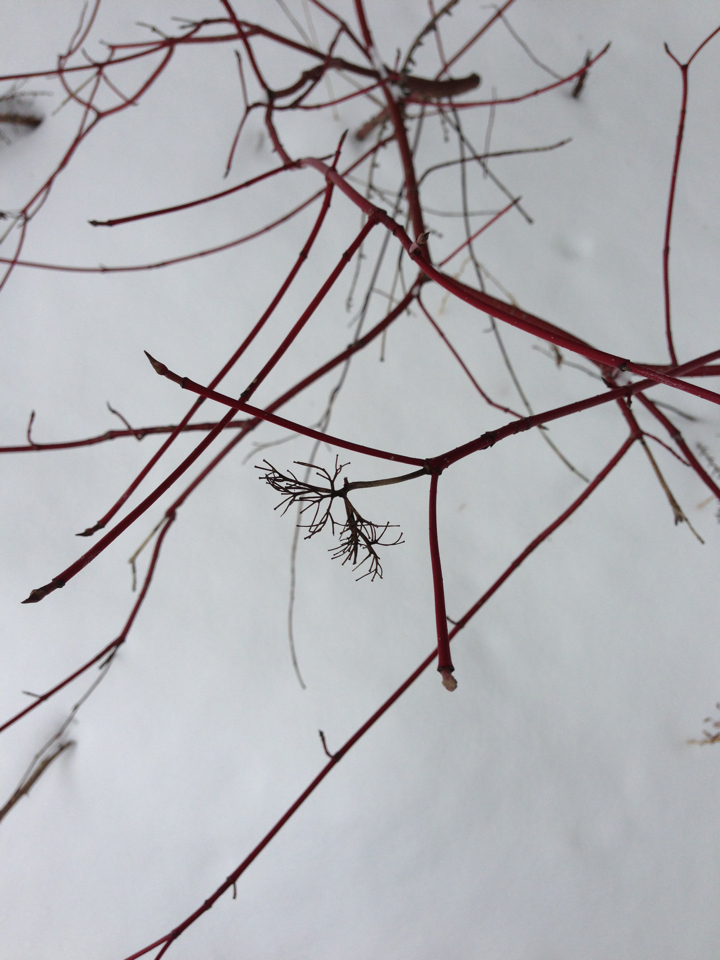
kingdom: Plantae
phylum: Tracheophyta
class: Magnoliopsida
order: Cornales
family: Cornaceae
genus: Cornus
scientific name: Cornus sericea
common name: Red-osier dogwood
